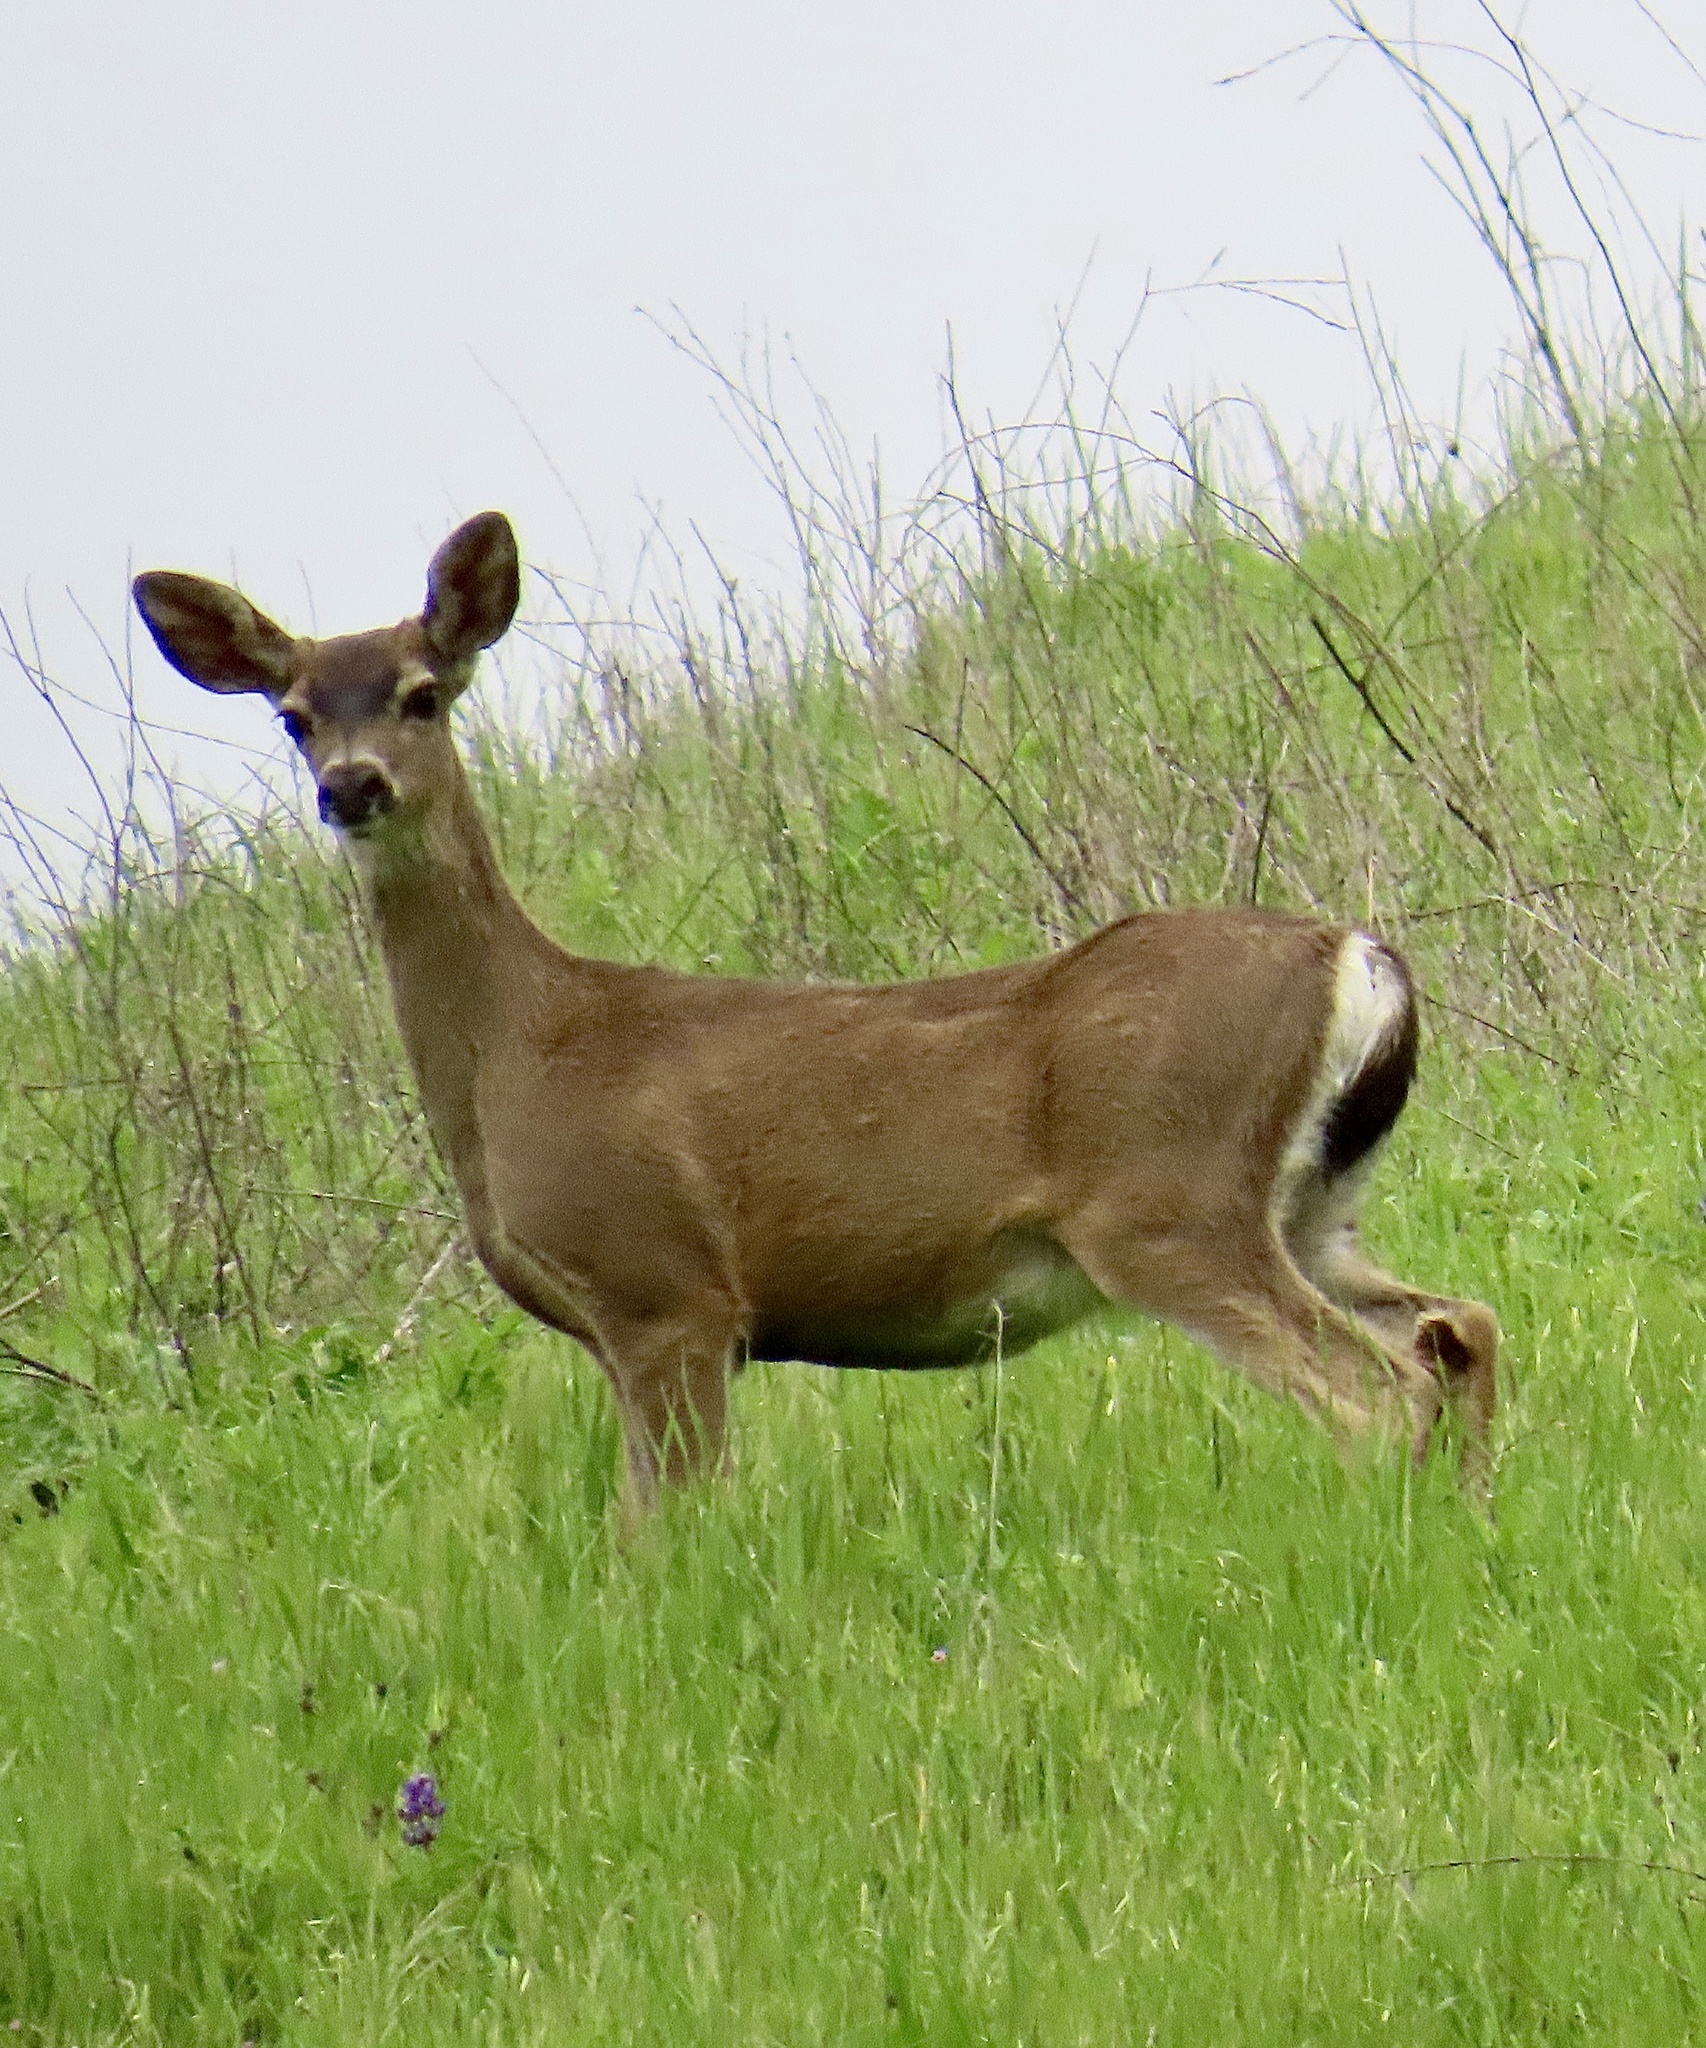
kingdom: Animalia
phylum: Chordata
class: Mammalia
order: Artiodactyla
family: Cervidae
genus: Odocoileus
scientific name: Odocoileus hemionus
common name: Mule deer
